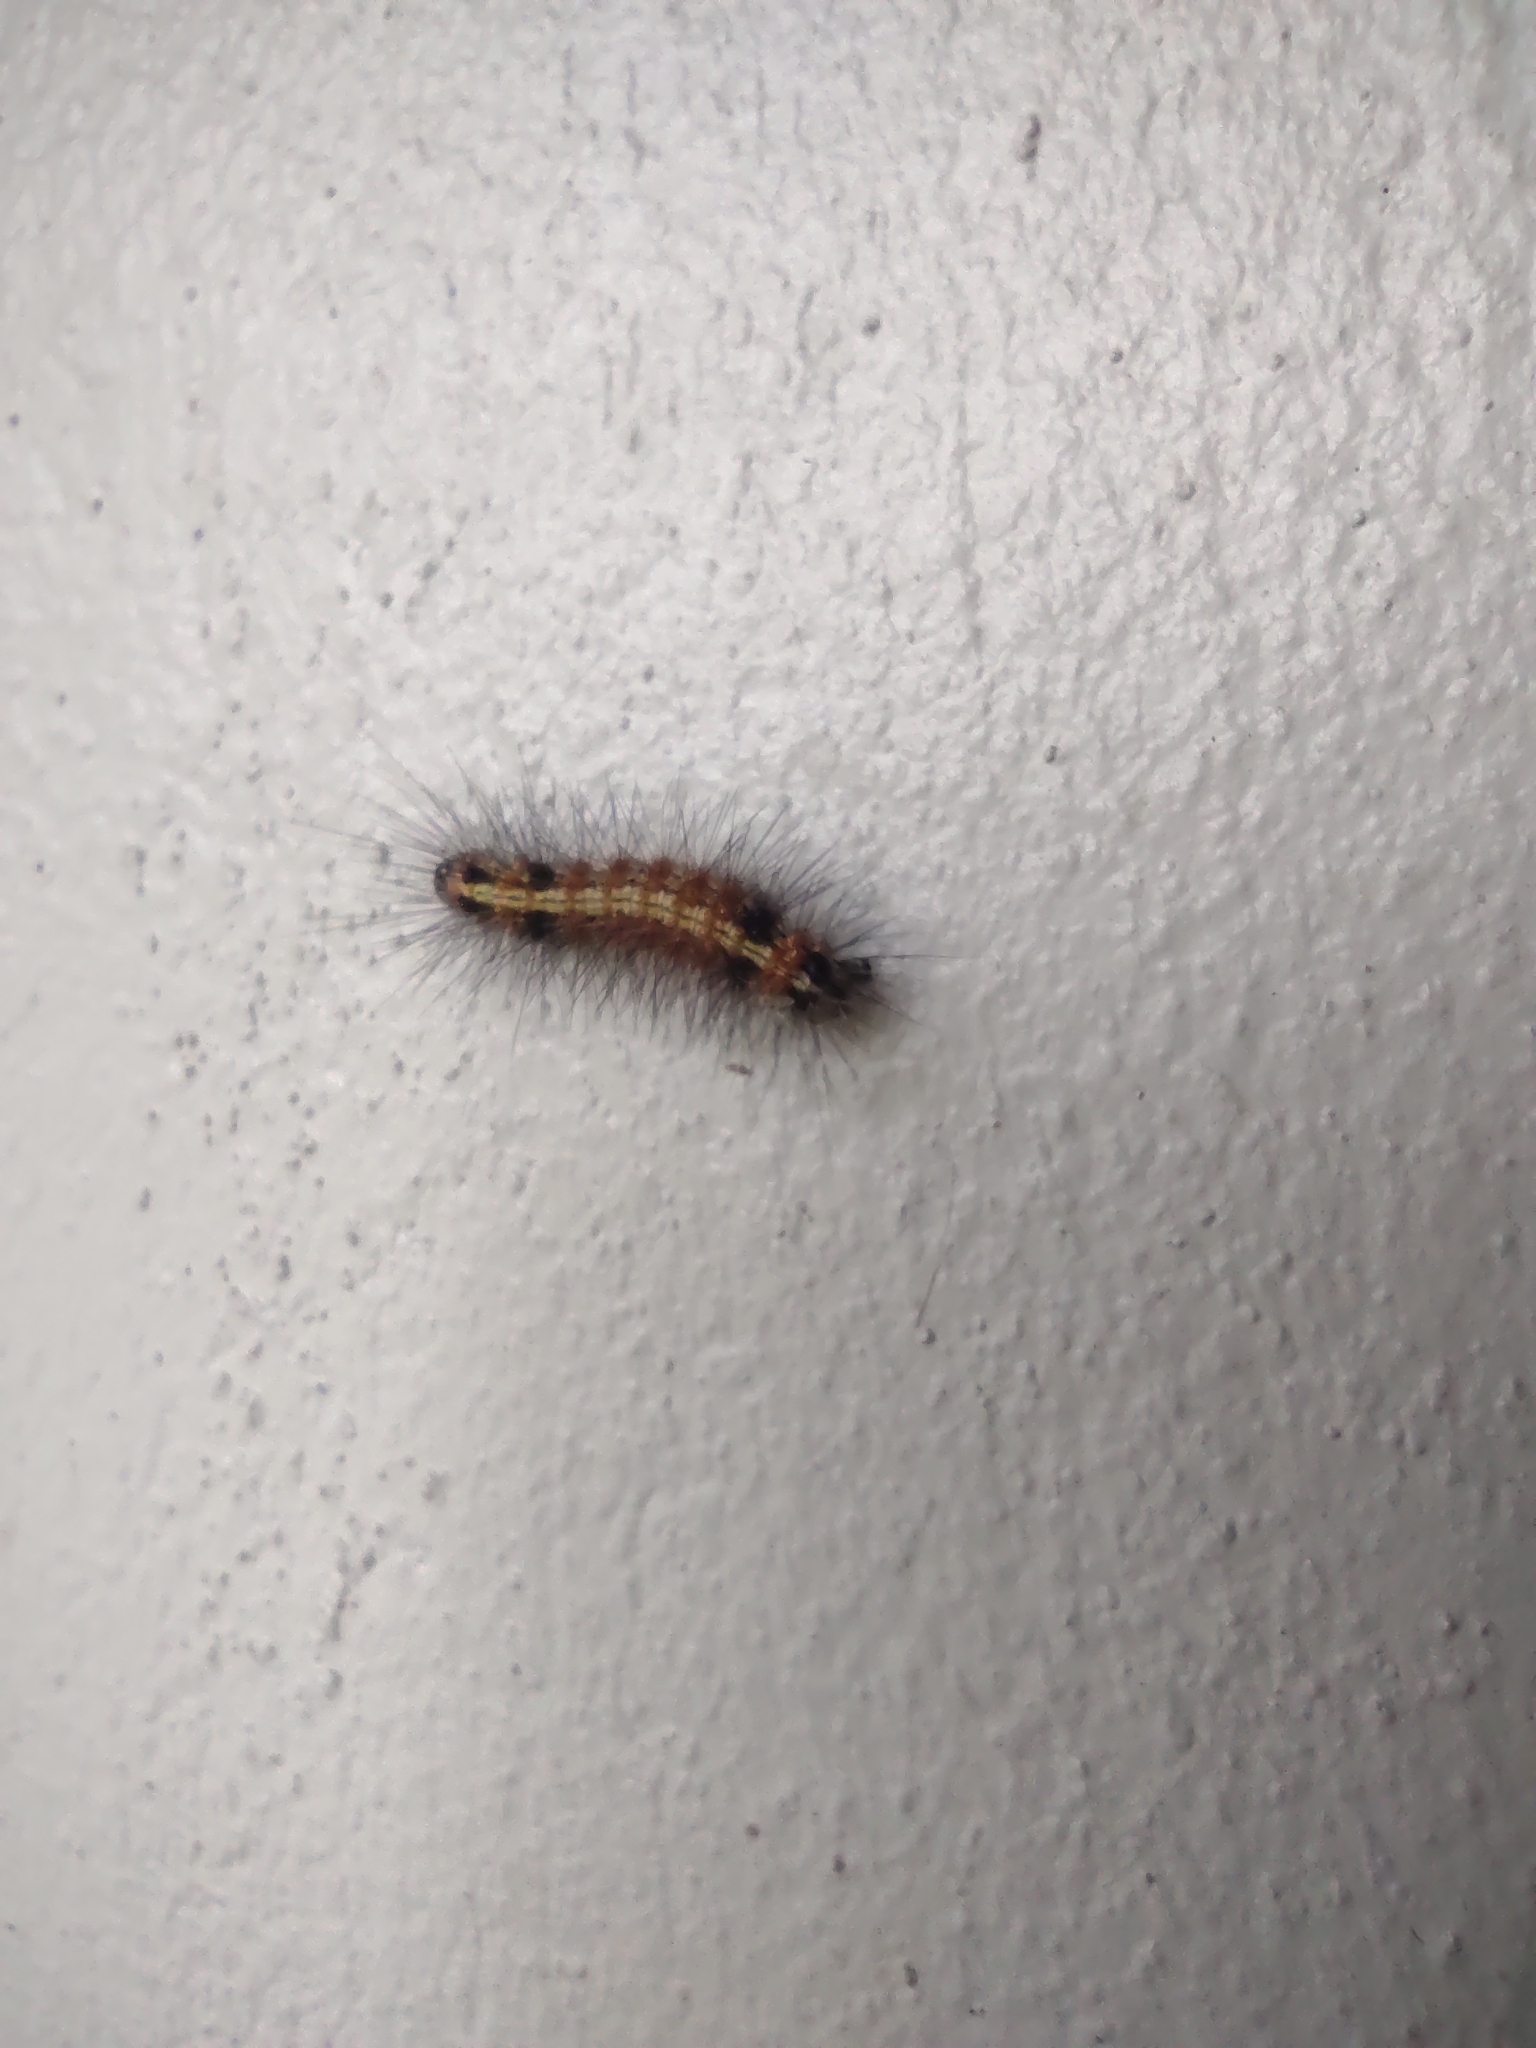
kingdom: Animalia
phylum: Arthropoda
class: Insecta
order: Lepidoptera
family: Erebidae
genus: Dysschema
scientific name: Dysschema sacrifica
